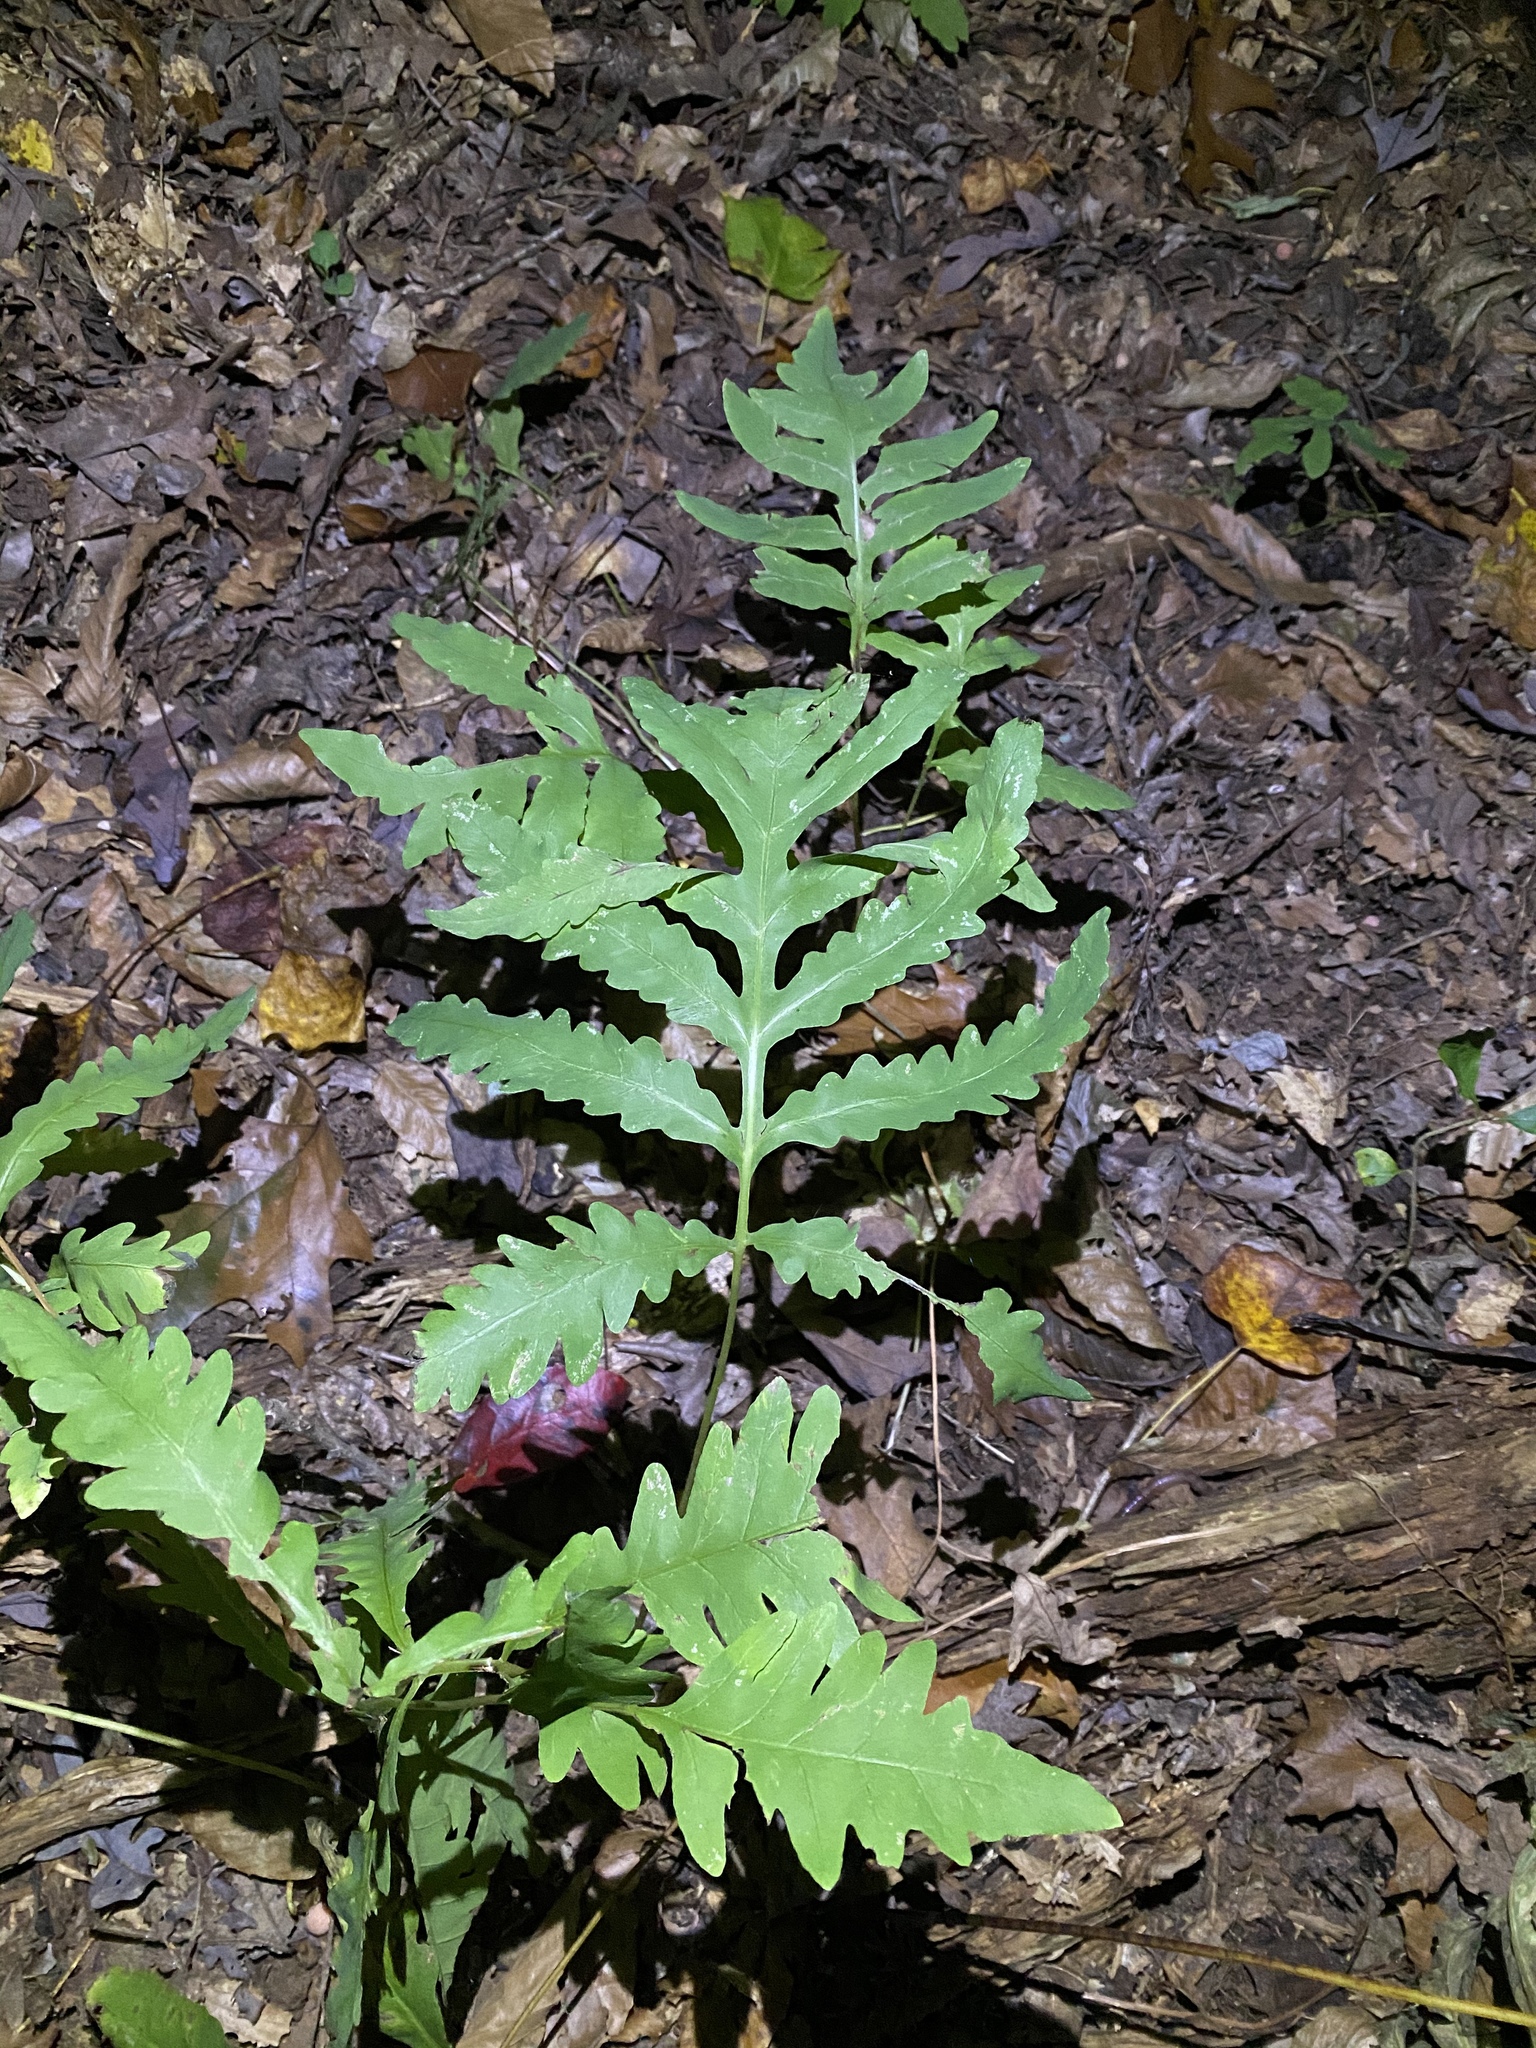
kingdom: Plantae
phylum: Tracheophyta
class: Polypodiopsida
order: Polypodiales
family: Onocleaceae
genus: Onoclea
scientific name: Onoclea sensibilis
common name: Sensitive fern
